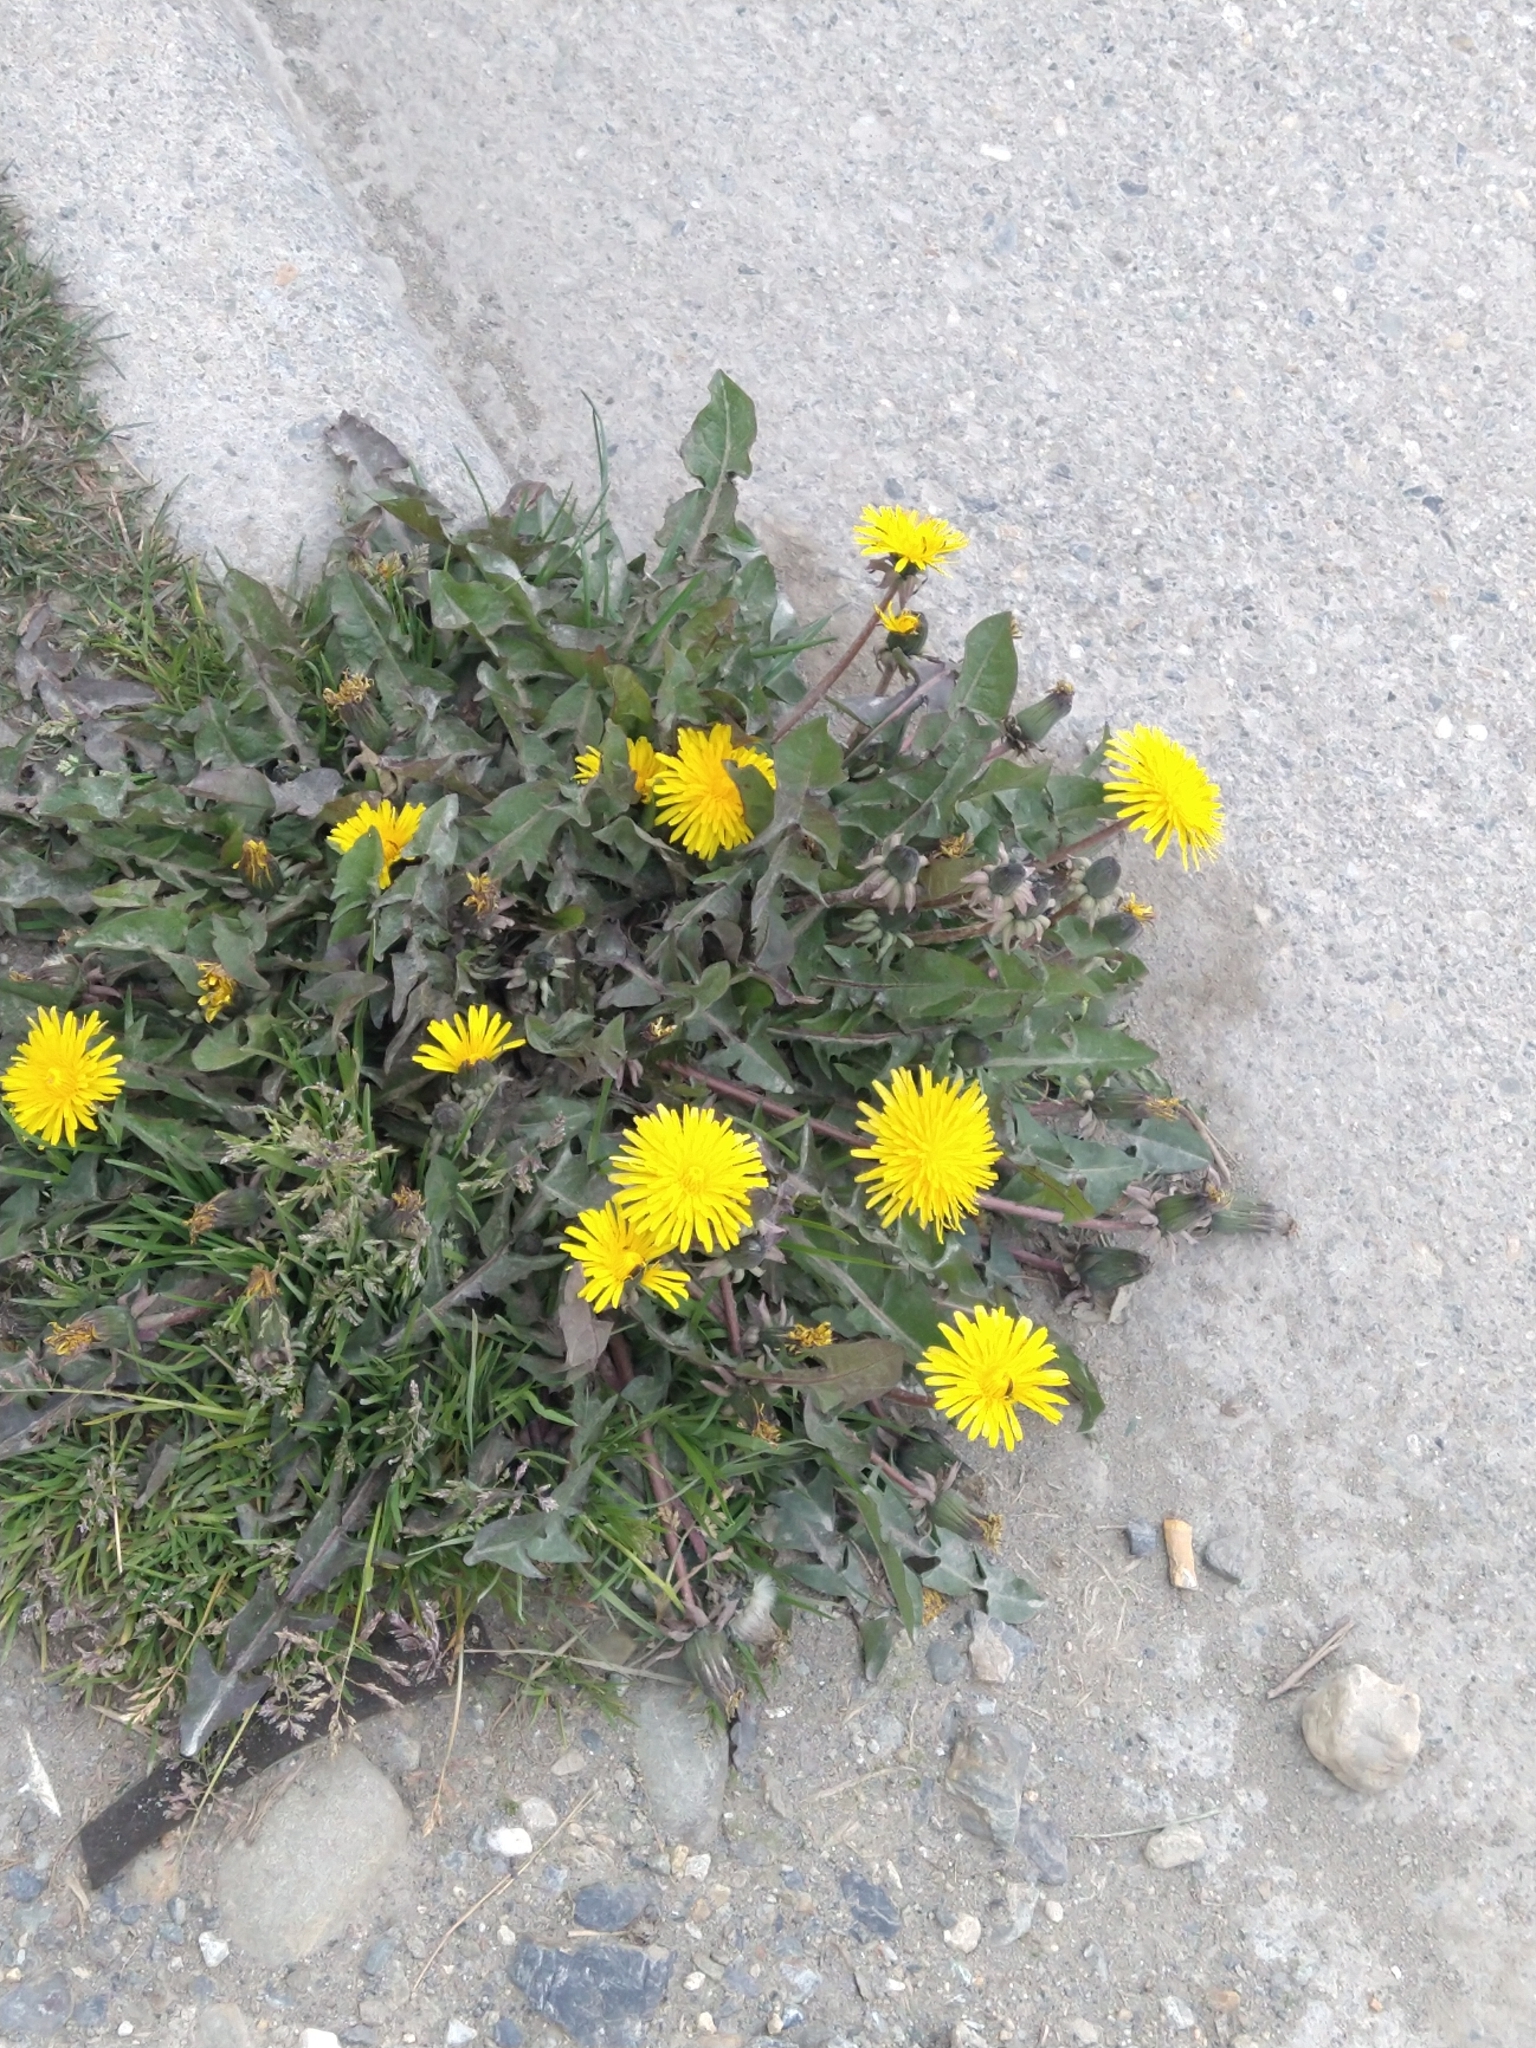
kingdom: Plantae
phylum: Tracheophyta
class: Magnoliopsida
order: Asterales
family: Asteraceae
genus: Taraxacum
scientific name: Taraxacum officinale
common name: Common dandelion
